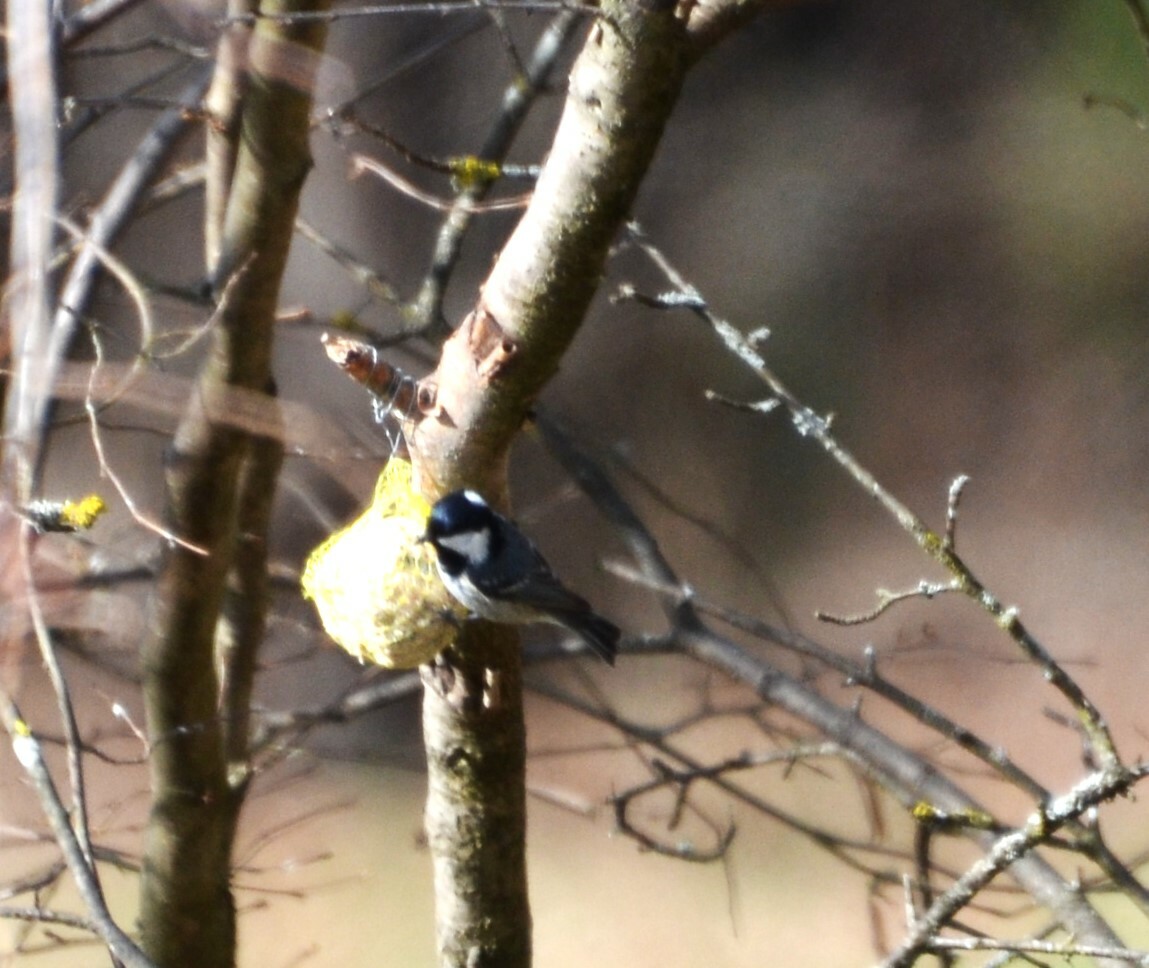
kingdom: Animalia
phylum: Chordata
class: Aves
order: Passeriformes
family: Paridae
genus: Periparus
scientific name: Periparus ater
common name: Coal tit
